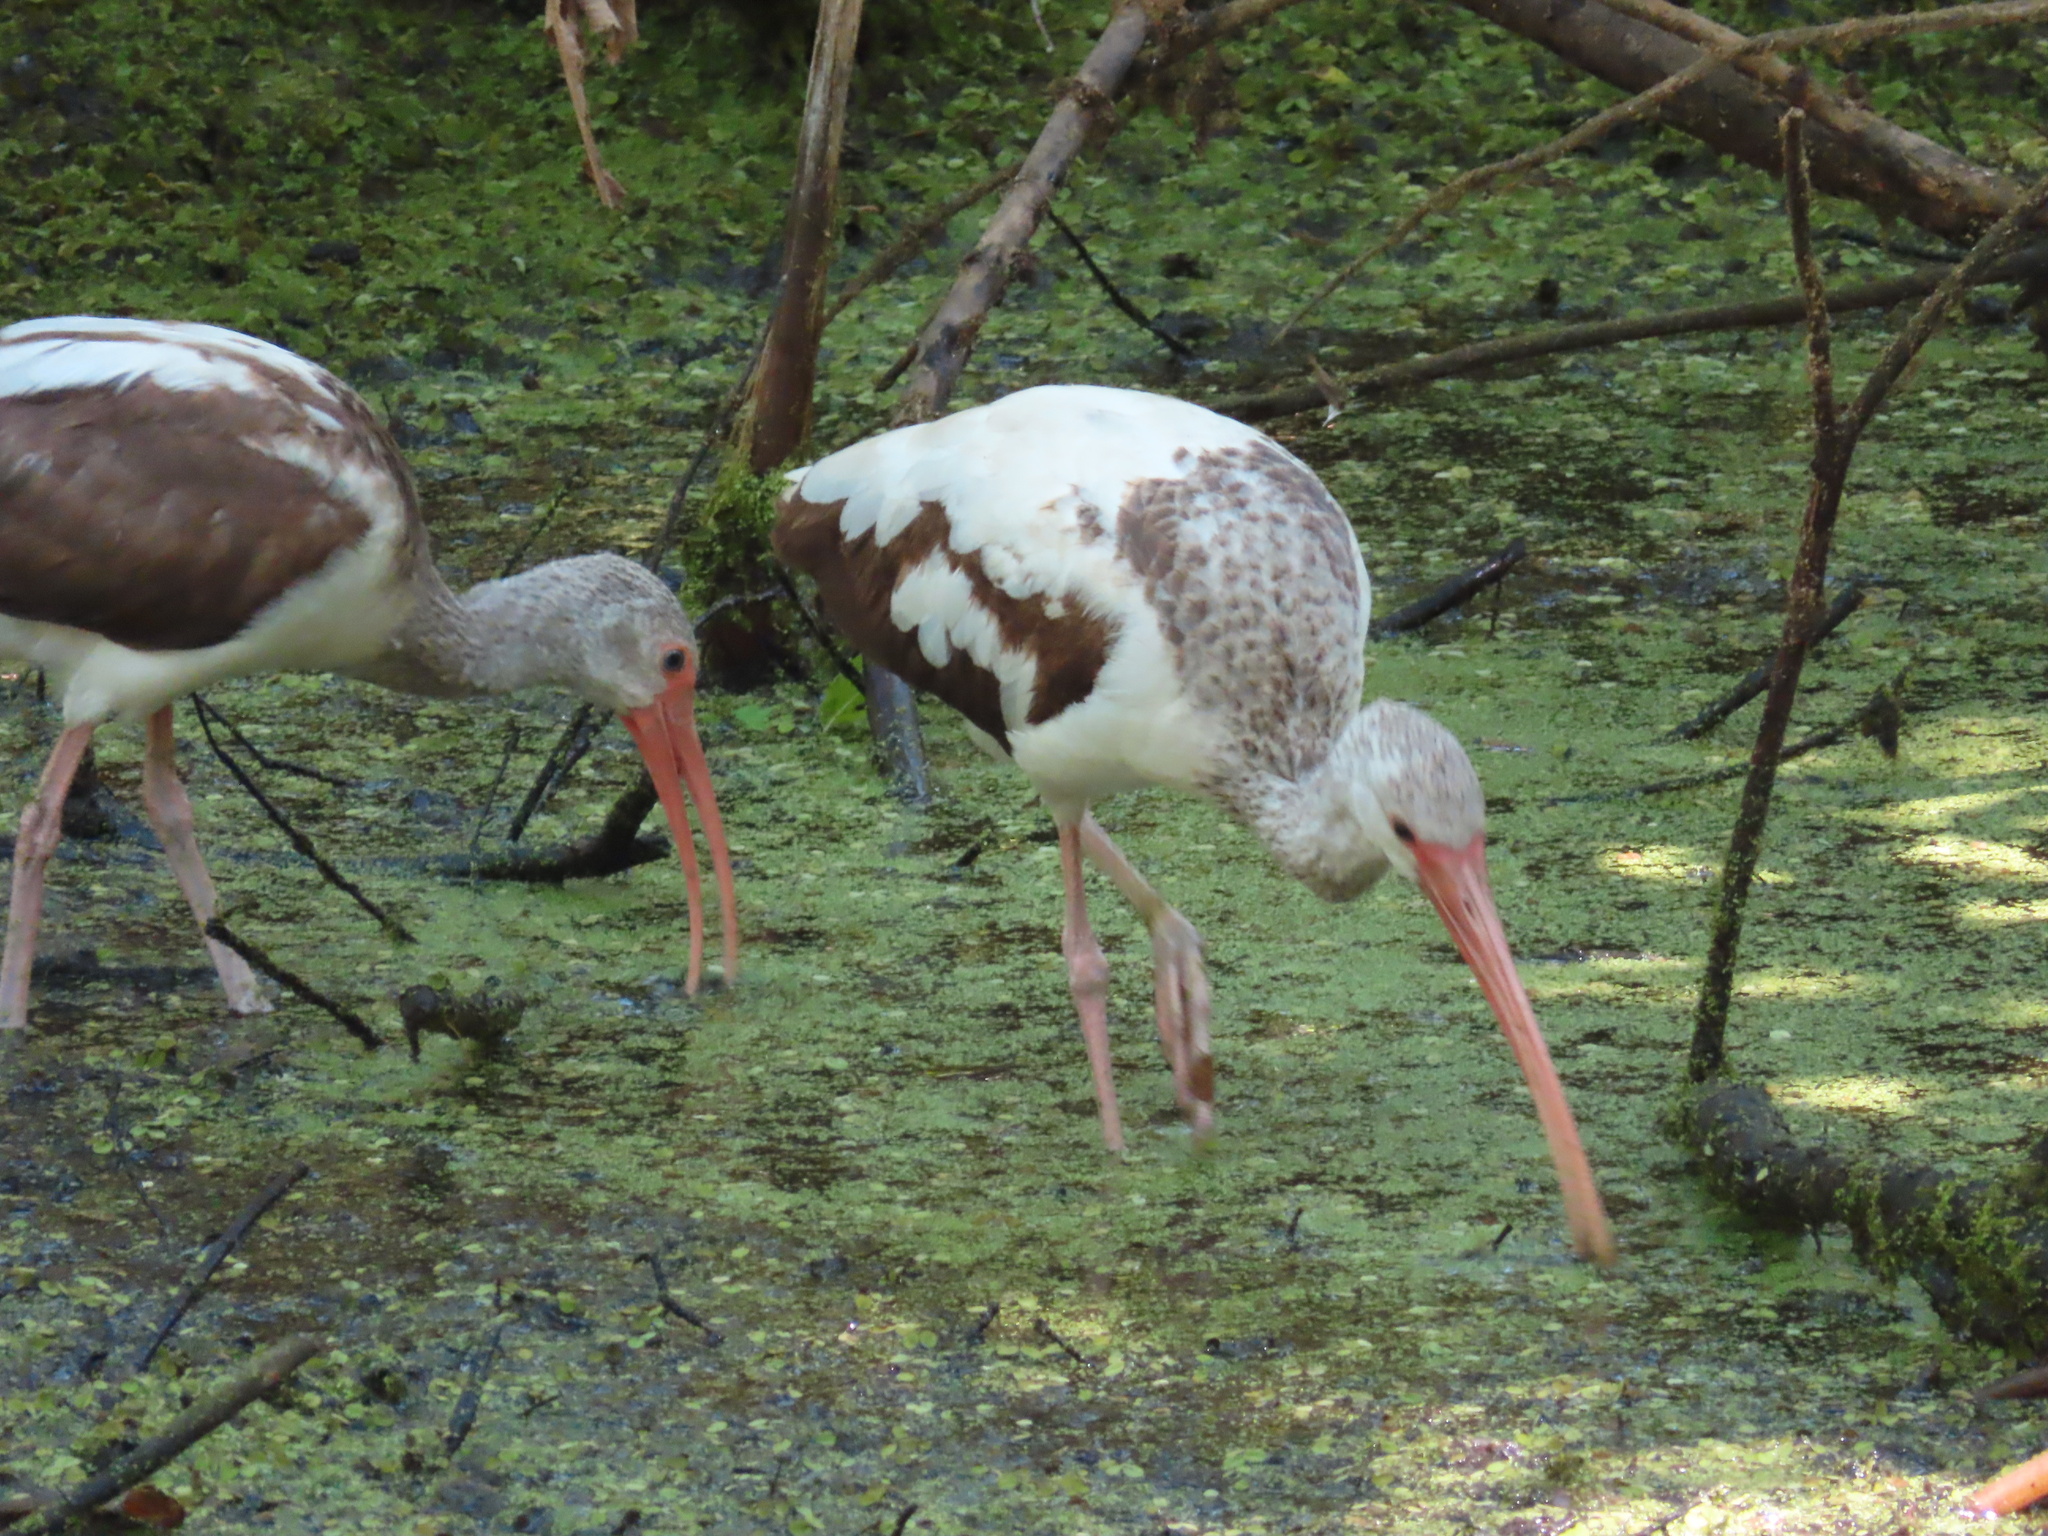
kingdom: Animalia
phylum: Chordata
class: Aves
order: Pelecaniformes
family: Threskiornithidae
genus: Eudocimus
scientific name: Eudocimus albus
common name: White ibis
